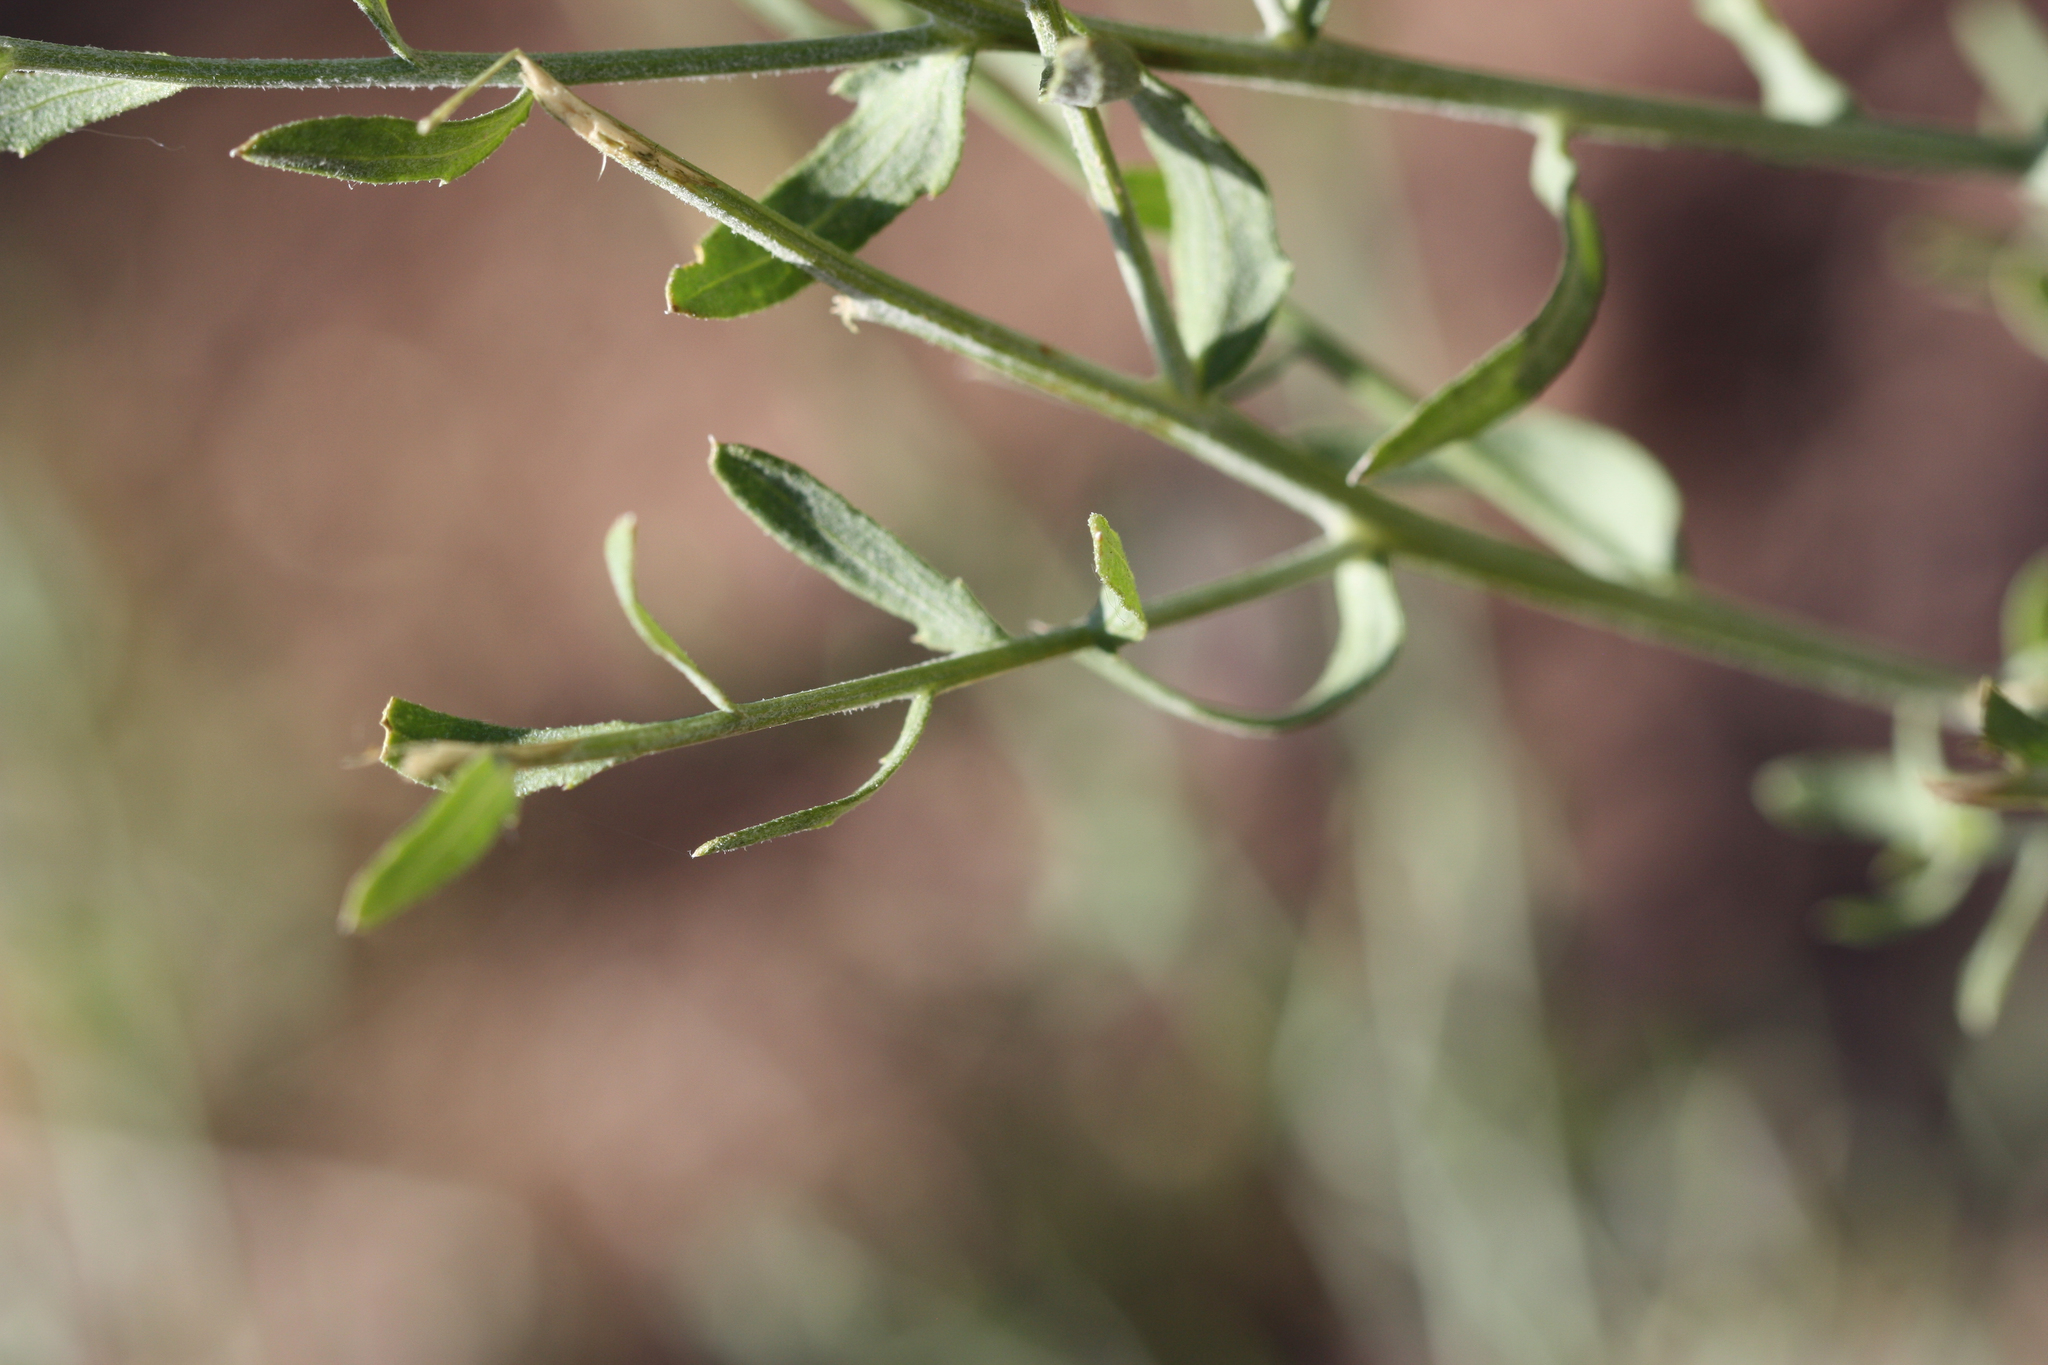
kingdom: Plantae
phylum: Tracheophyta
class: Magnoliopsida
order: Asterales
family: Asteraceae
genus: Leuzea
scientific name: Leuzea repens
